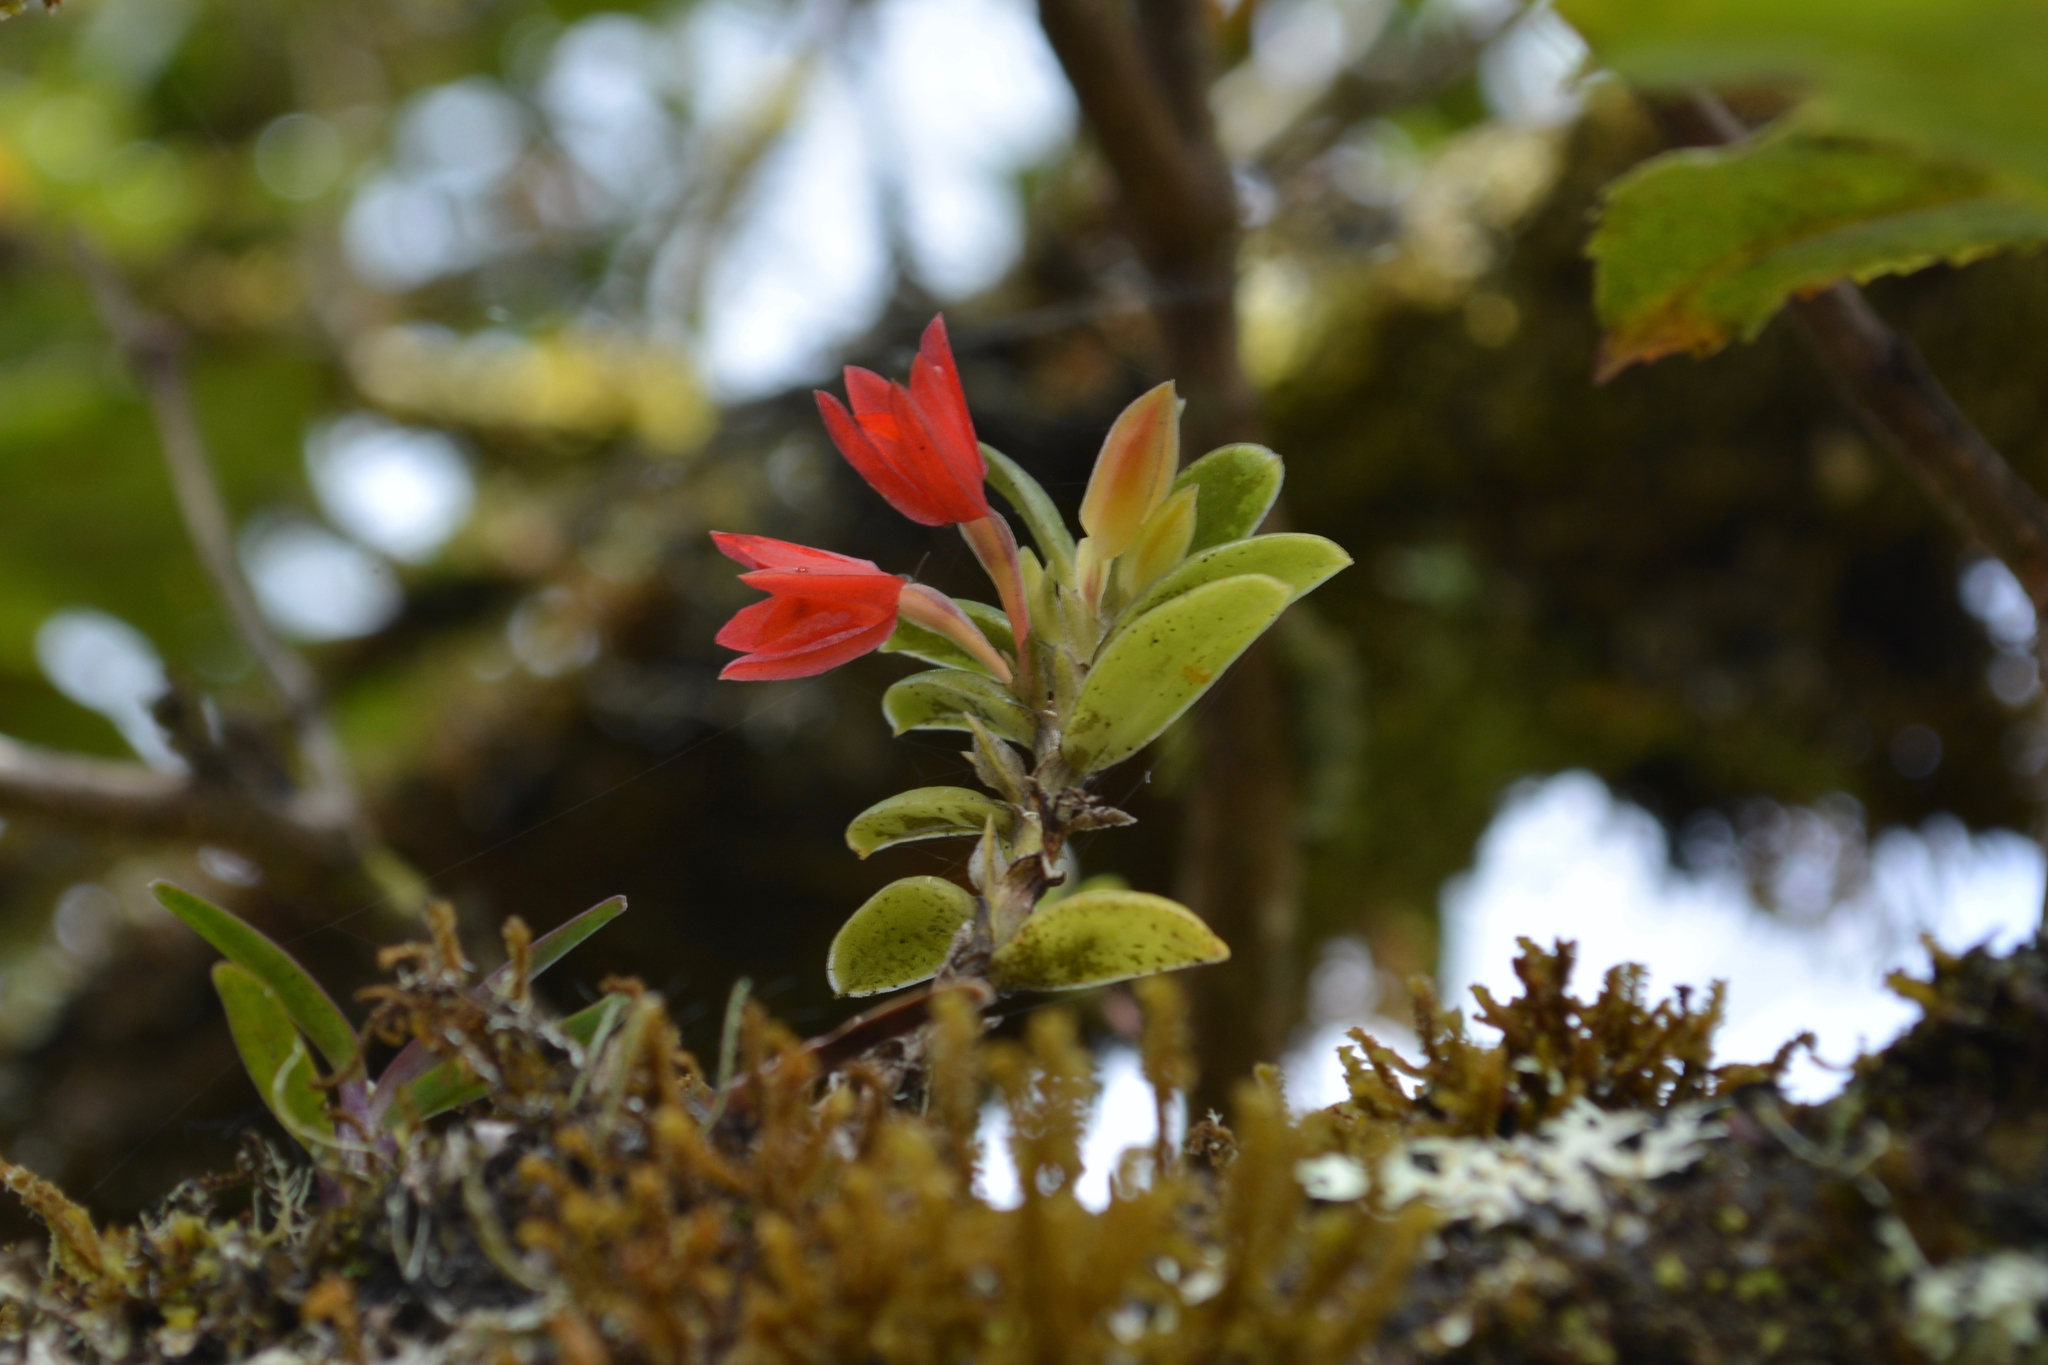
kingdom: Plantae
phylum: Tracheophyta
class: Liliopsida
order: Asparagales
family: Orchidaceae
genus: Fernandezia
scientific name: Fernandezia sanguinea
